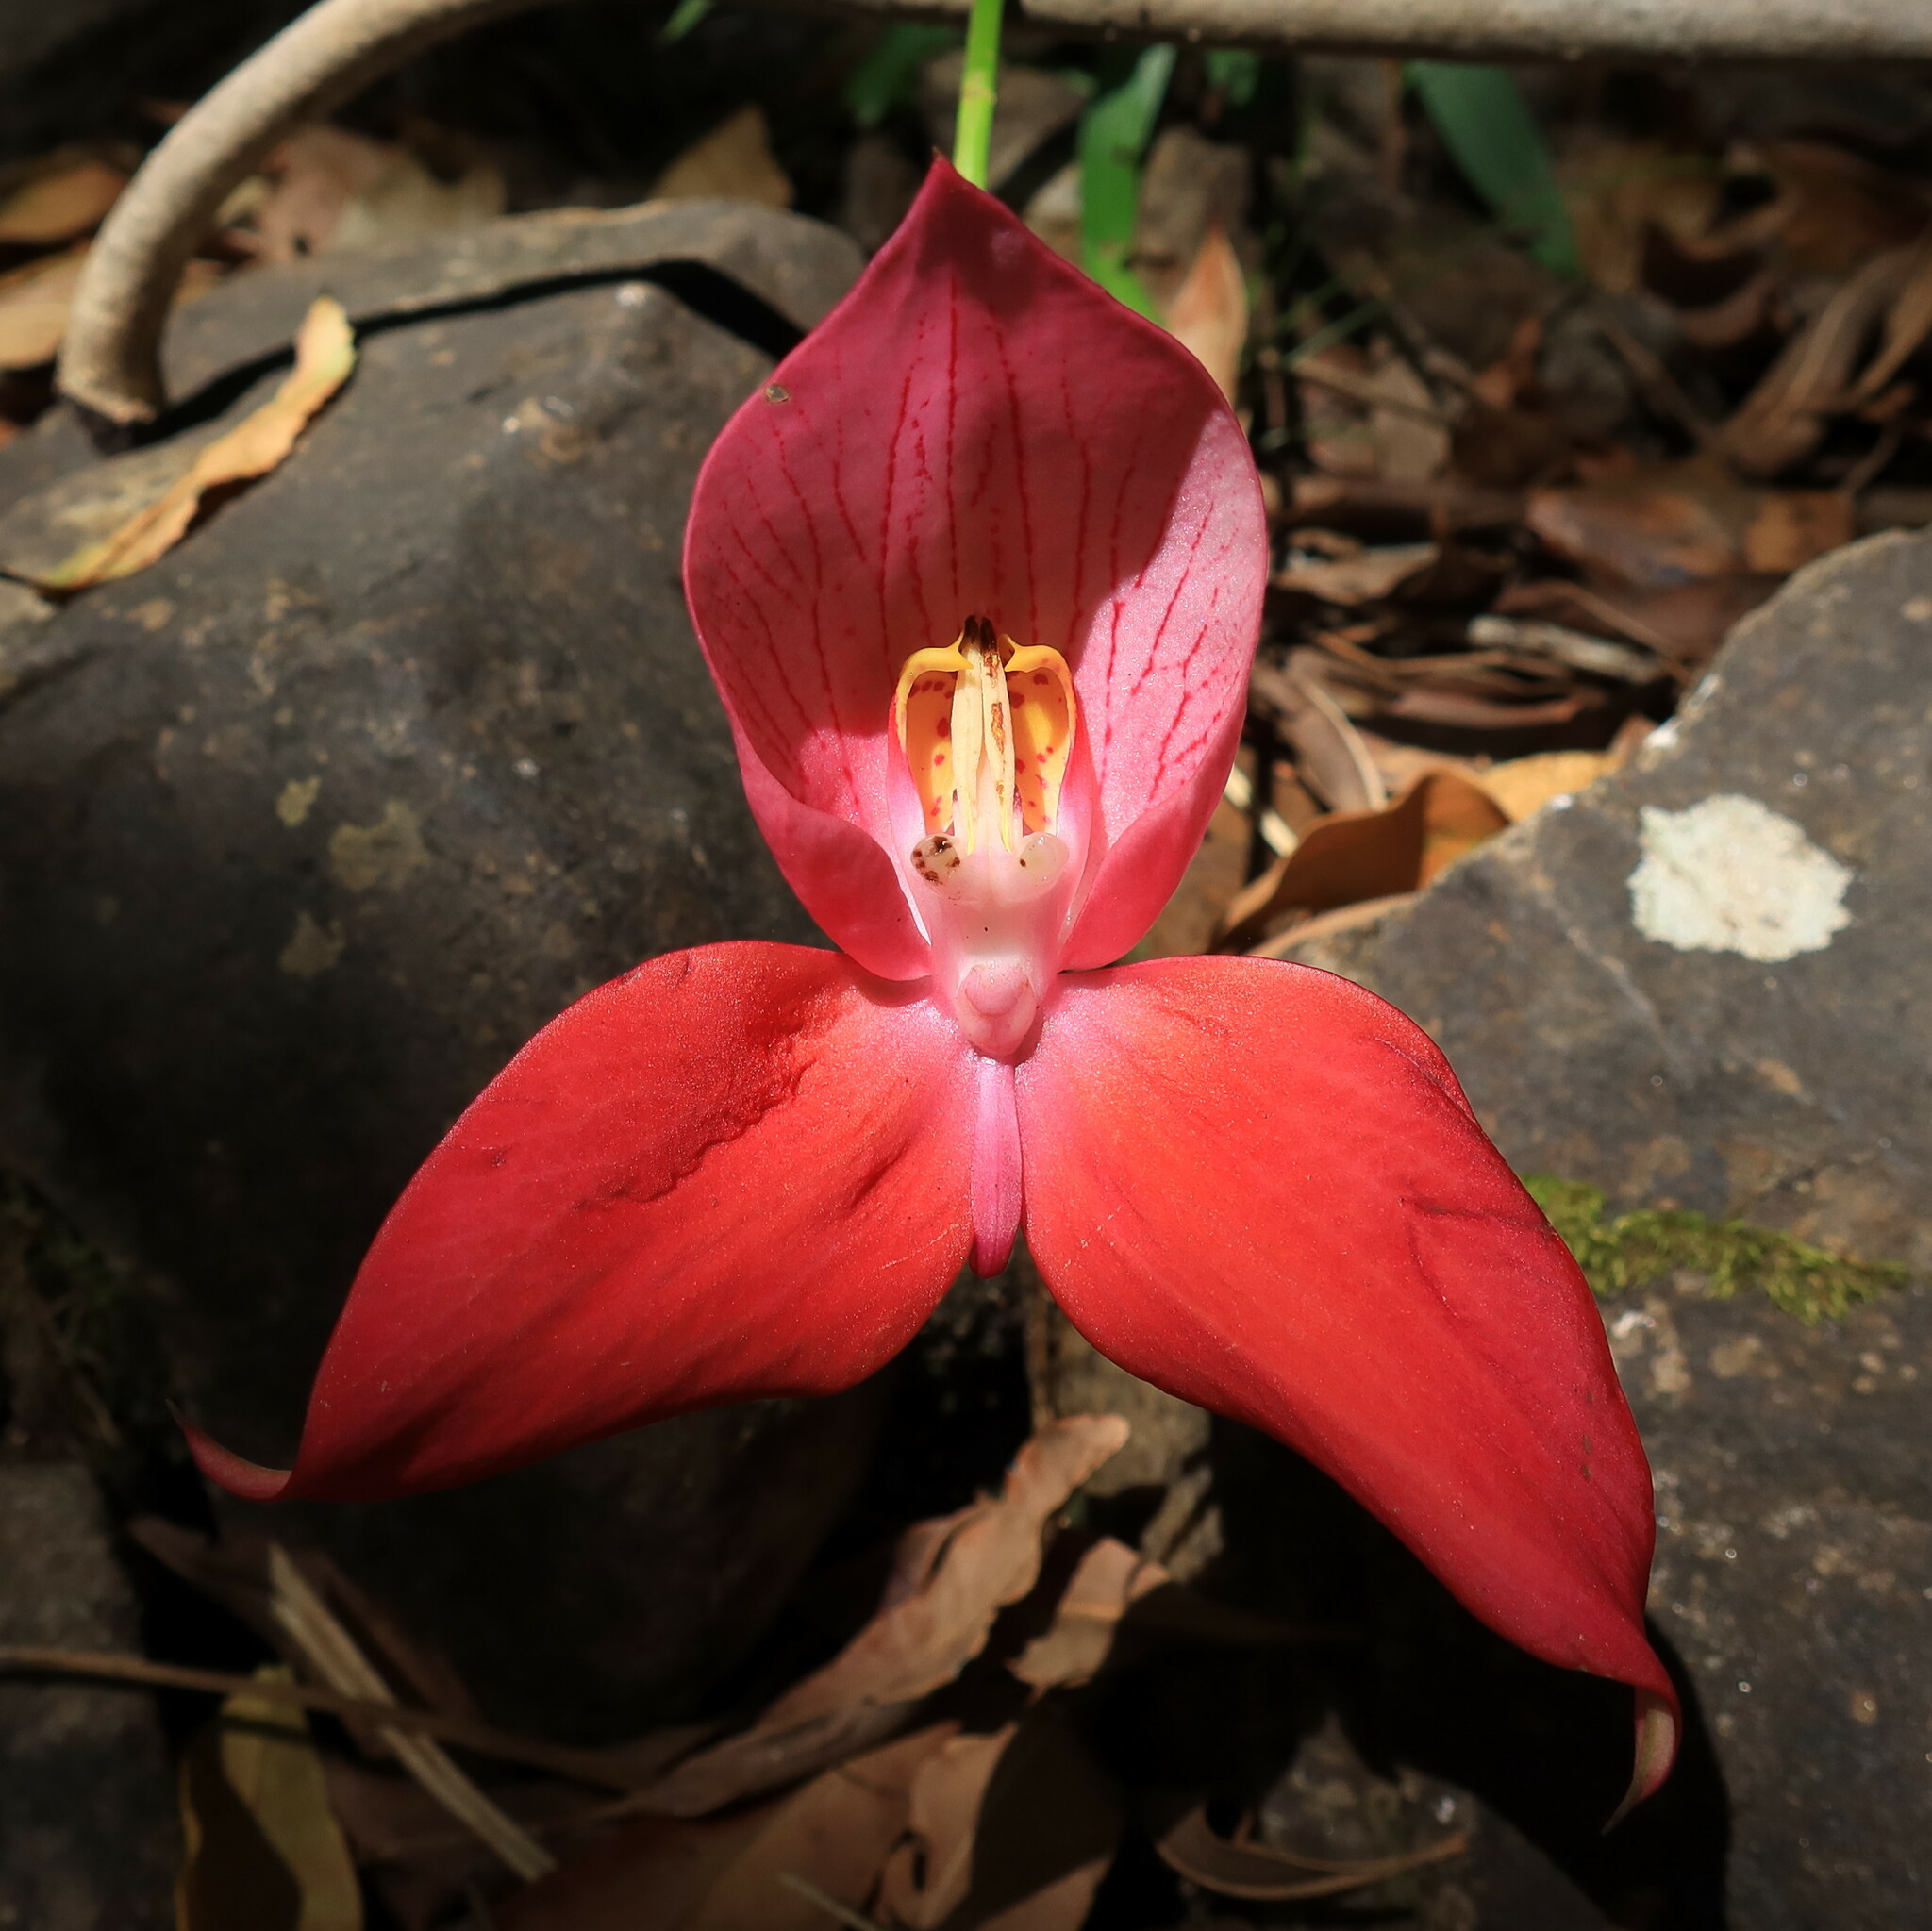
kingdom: Plantae
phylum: Tracheophyta
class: Liliopsida
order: Asparagales
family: Orchidaceae
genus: Disa
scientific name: Disa uniflora
